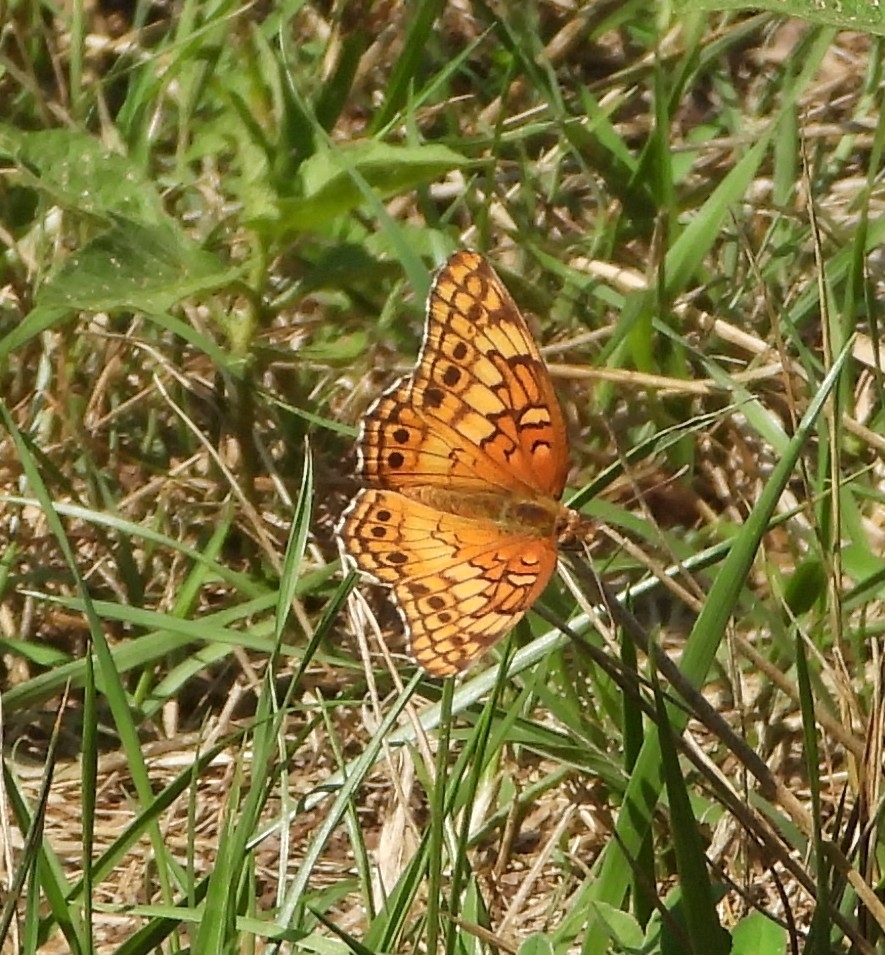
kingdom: Animalia
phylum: Arthropoda
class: Insecta
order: Lepidoptera
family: Nymphalidae
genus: Euptoieta
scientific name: Euptoieta claudia
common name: Variegated fritillary
